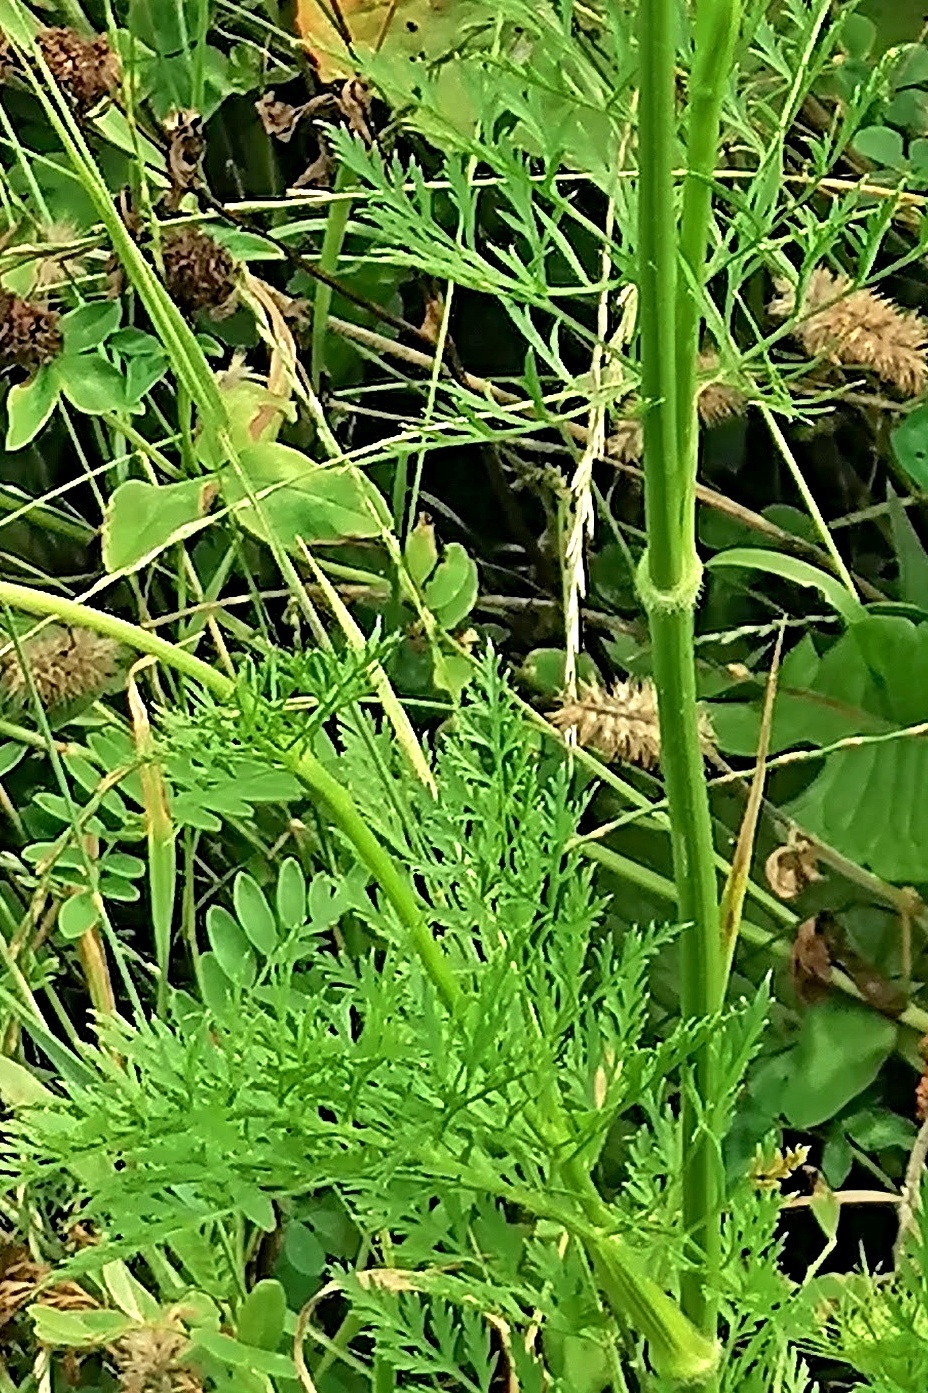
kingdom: Plantae
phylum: Tracheophyta
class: Magnoliopsida
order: Apiales
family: Apiaceae
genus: Daucus
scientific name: Daucus carota
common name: Wild carrot
